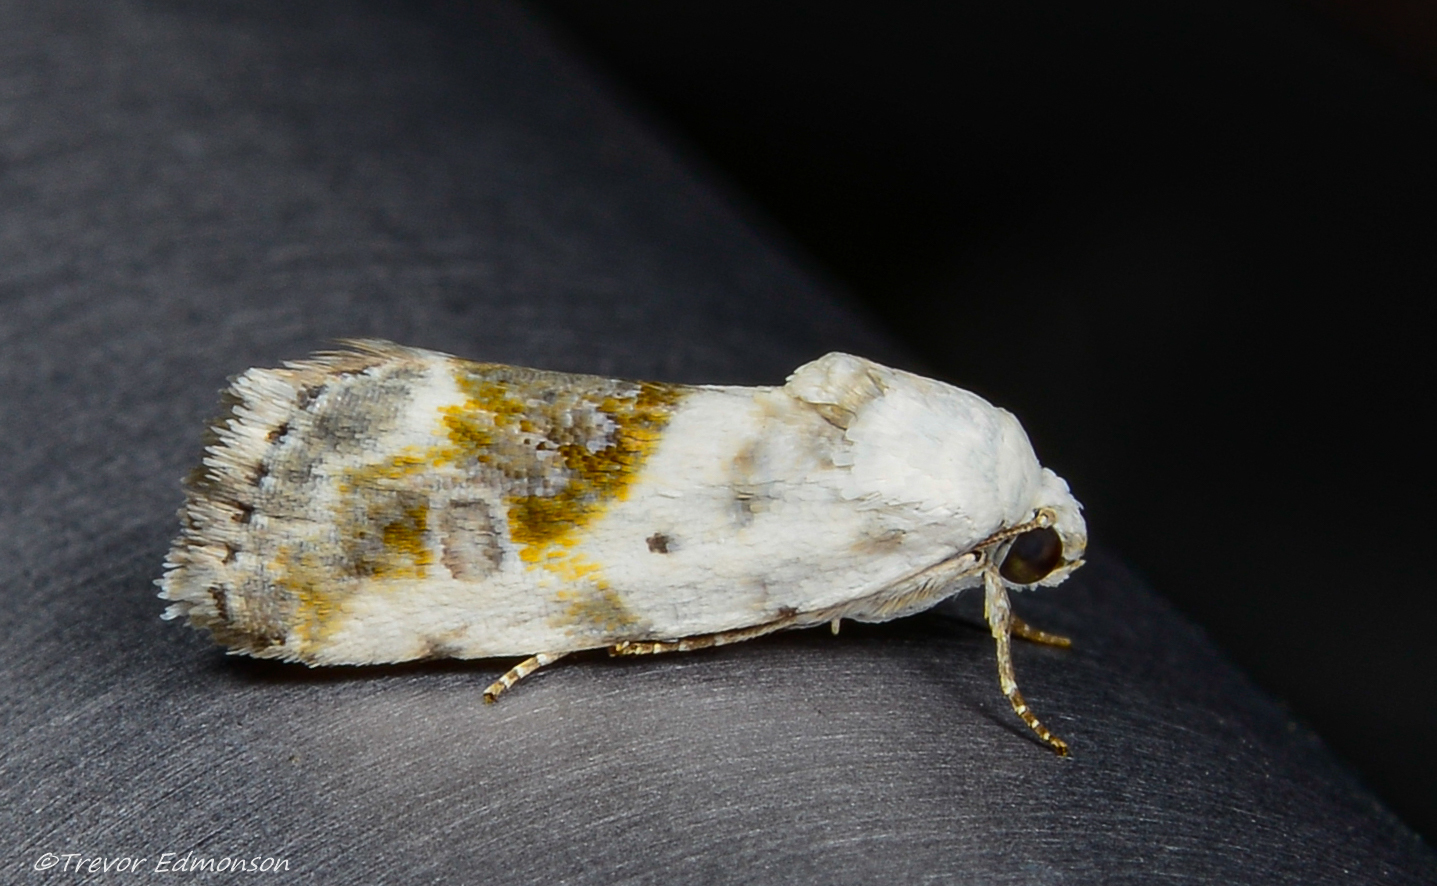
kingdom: Animalia
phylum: Arthropoda
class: Insecta
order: Lepidoptera
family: Noctuidae
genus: Acontia
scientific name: Acontia candefacta
